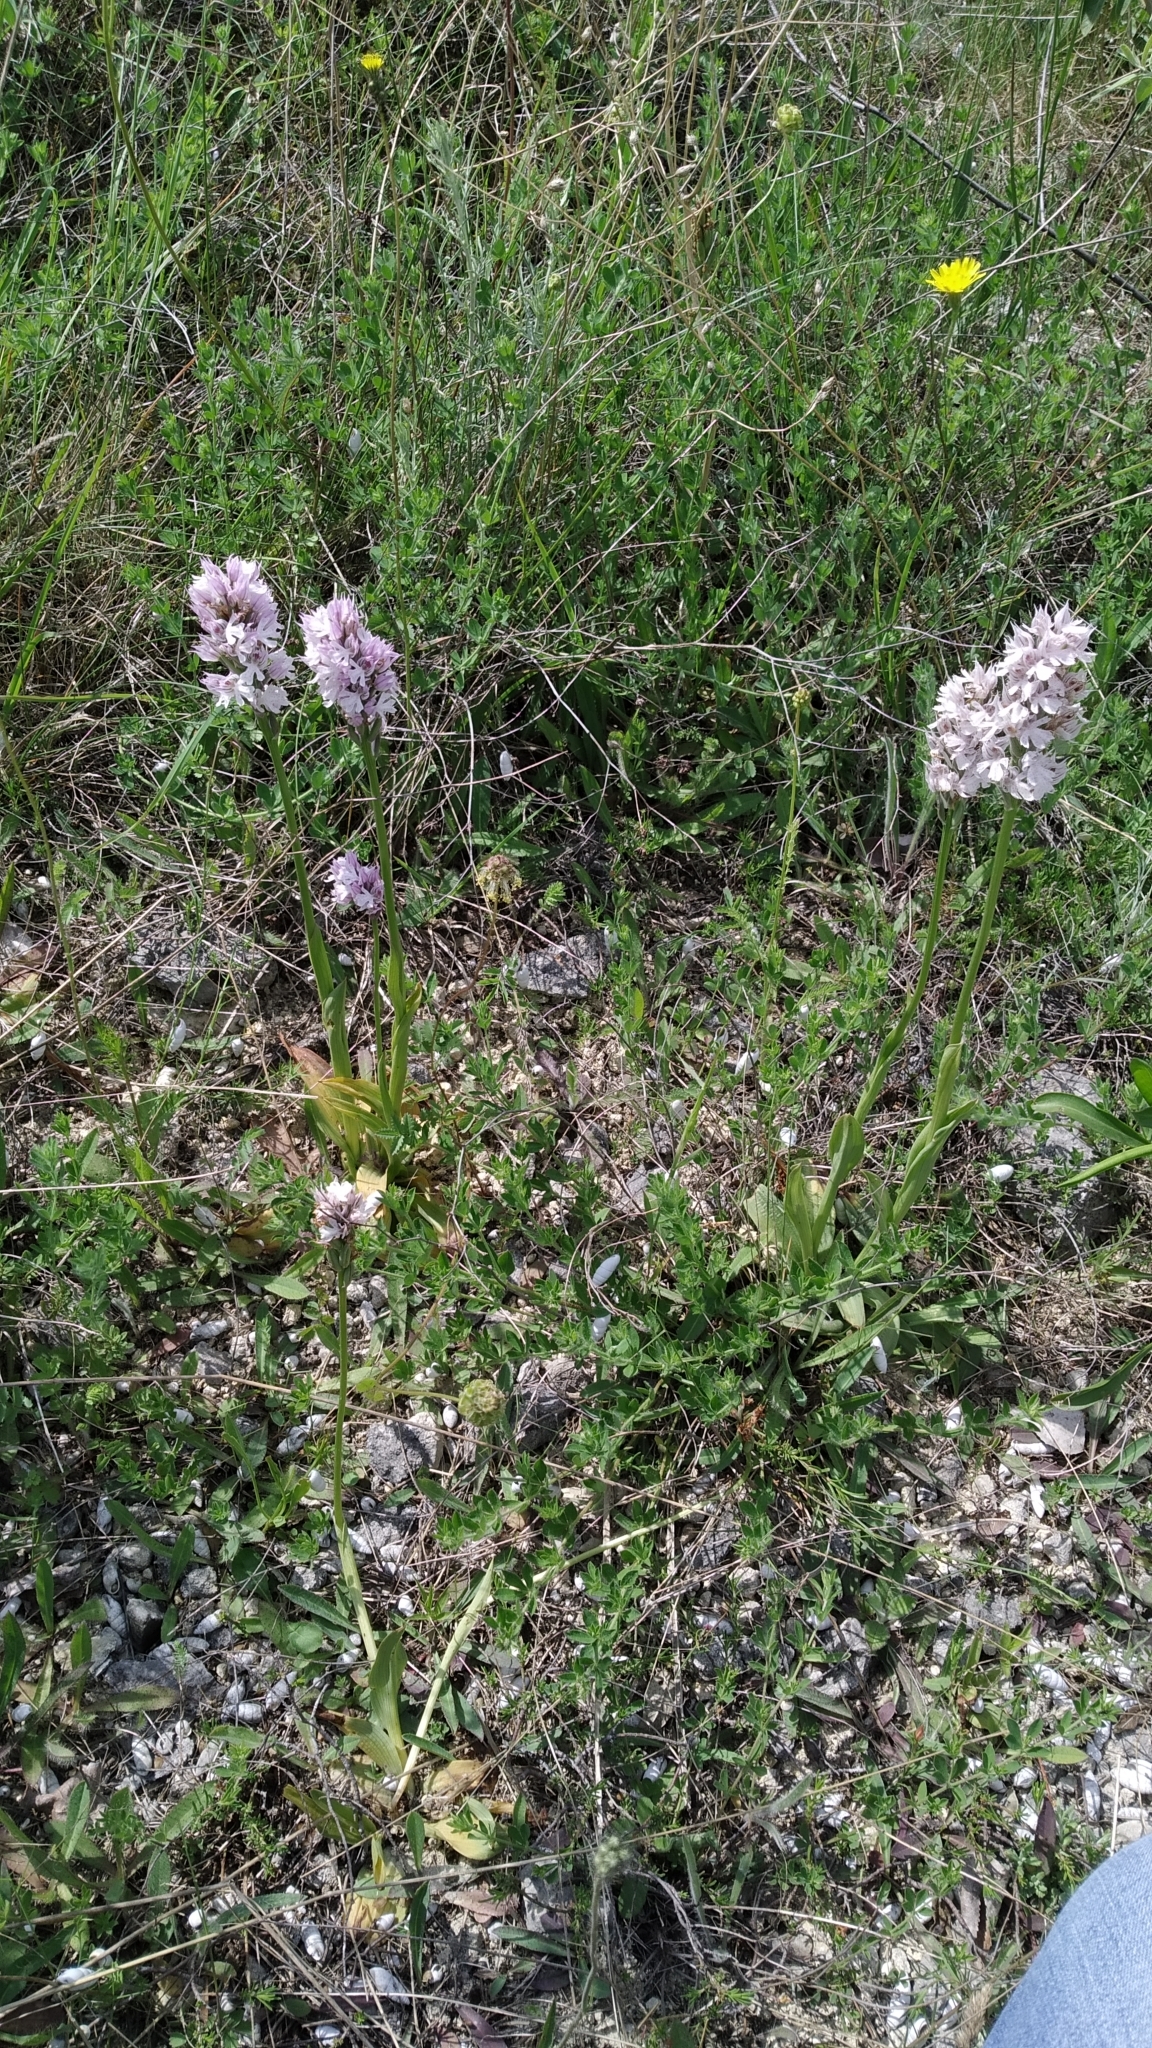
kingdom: Plantae
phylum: Tracheophyta
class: Liliopsida
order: Asparagales
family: Orchidaceae
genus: Neotinea
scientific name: Neotinea tridentata
